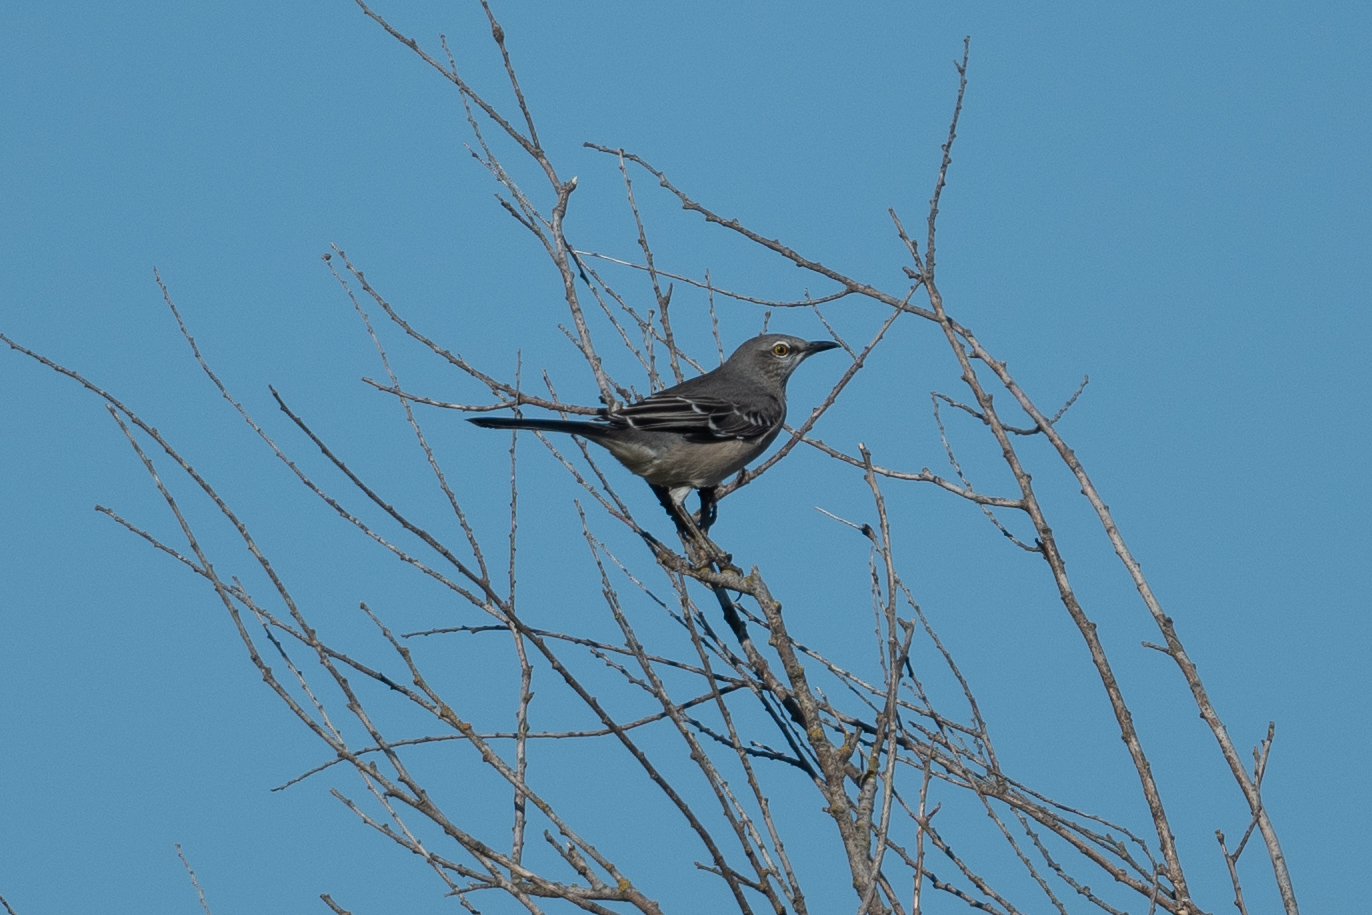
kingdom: Animalia
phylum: Chordata
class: Aves
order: Passeriformes
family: Mimidae
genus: Mimus
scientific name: Mimus polyglottos
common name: Northern mockingbird
